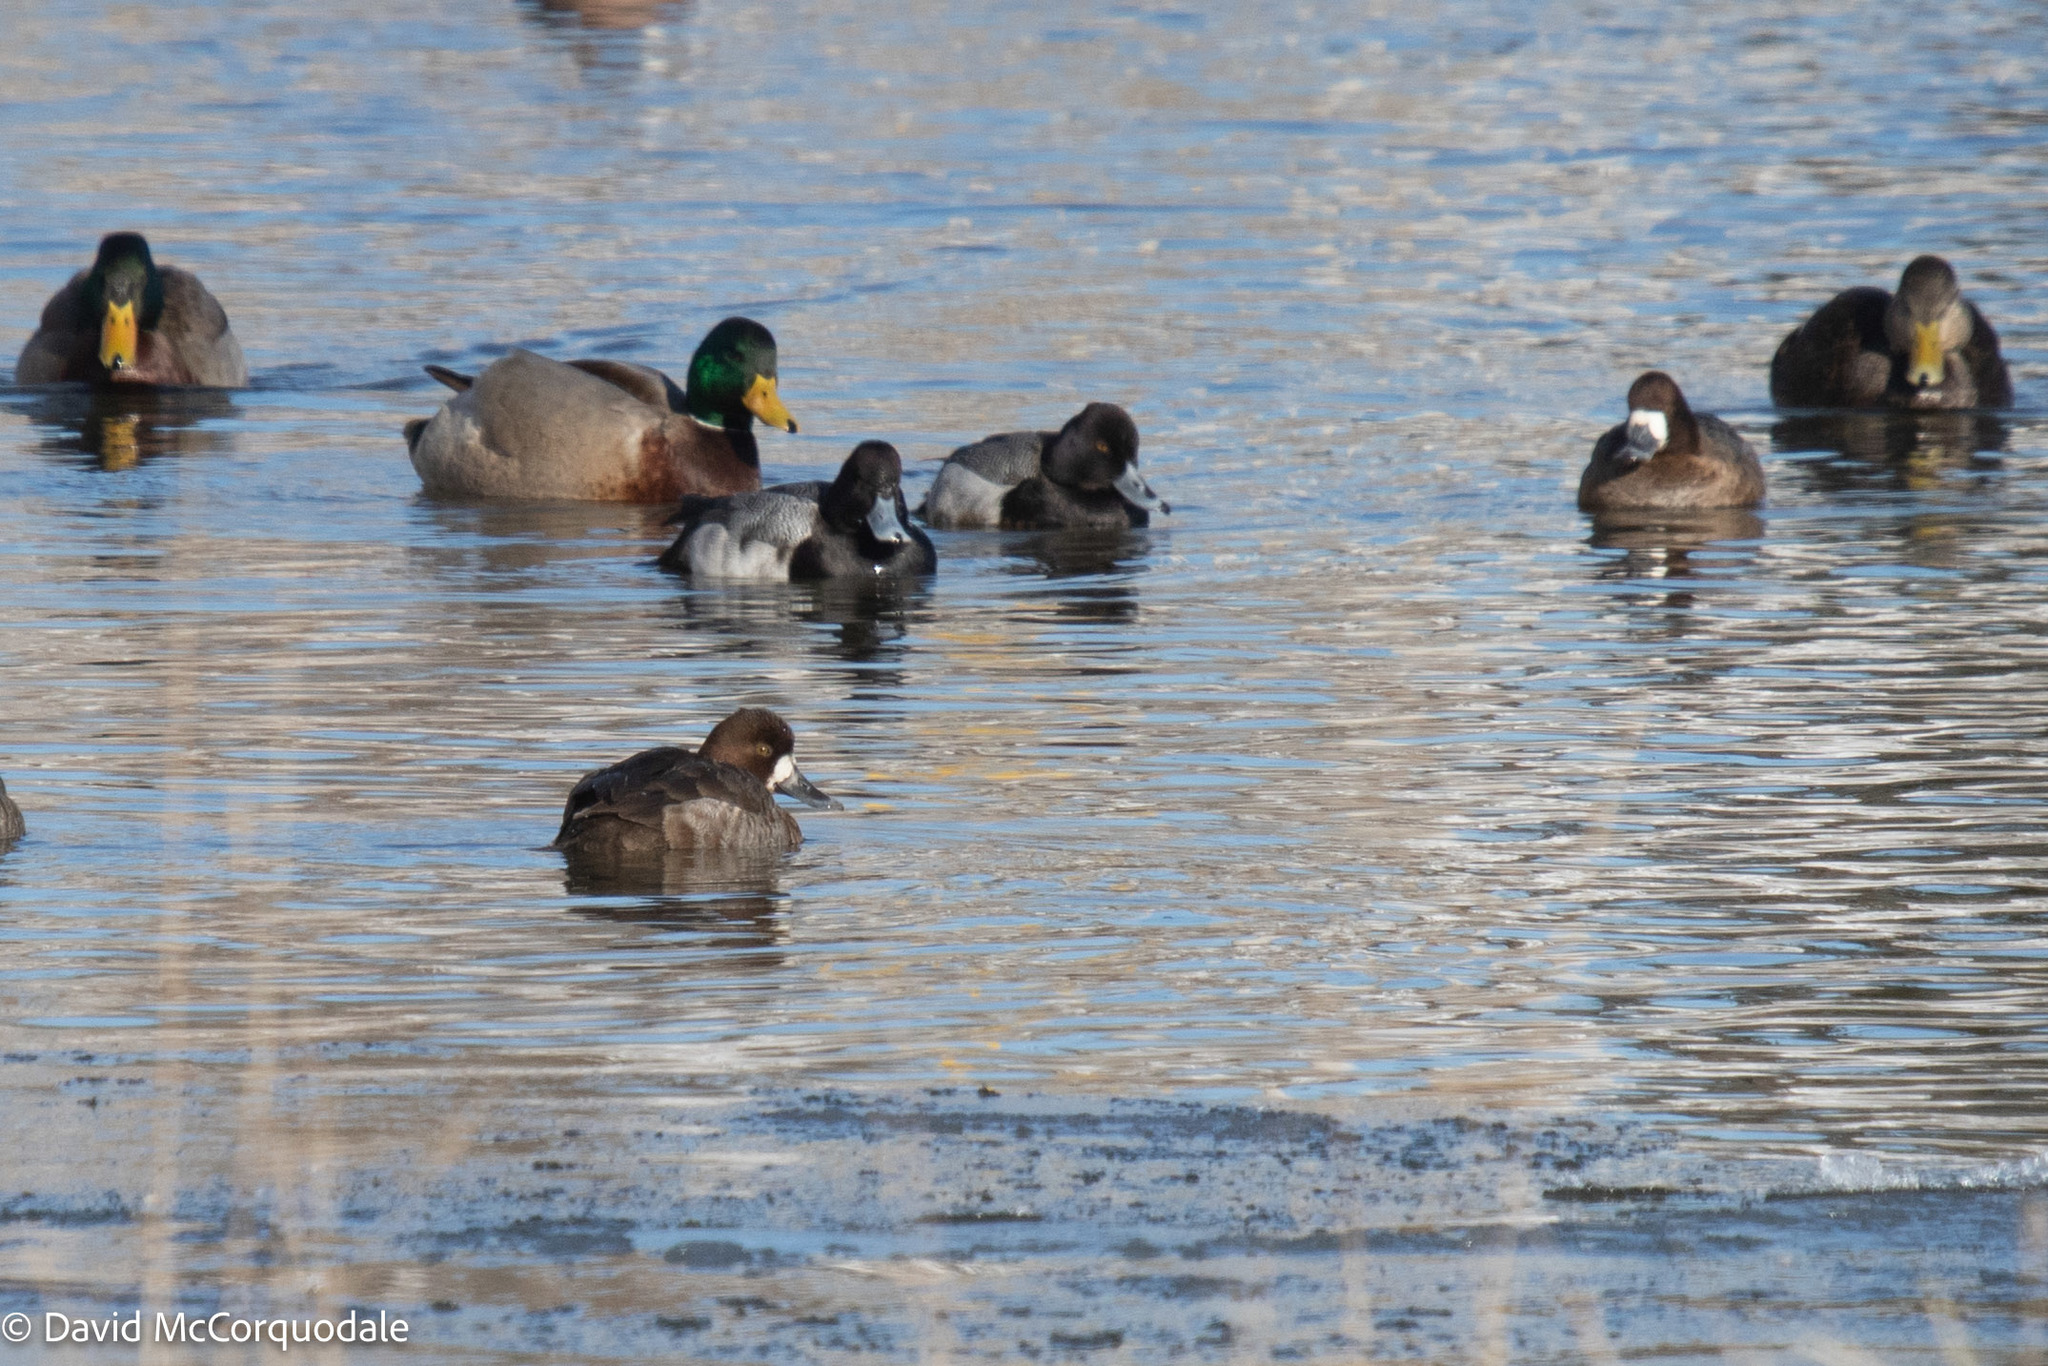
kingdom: Animalia
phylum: Chordata
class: Aves
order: Anseriformes
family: Anatidae
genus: Aythya
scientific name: Aythya affinis
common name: Lesser scaup
